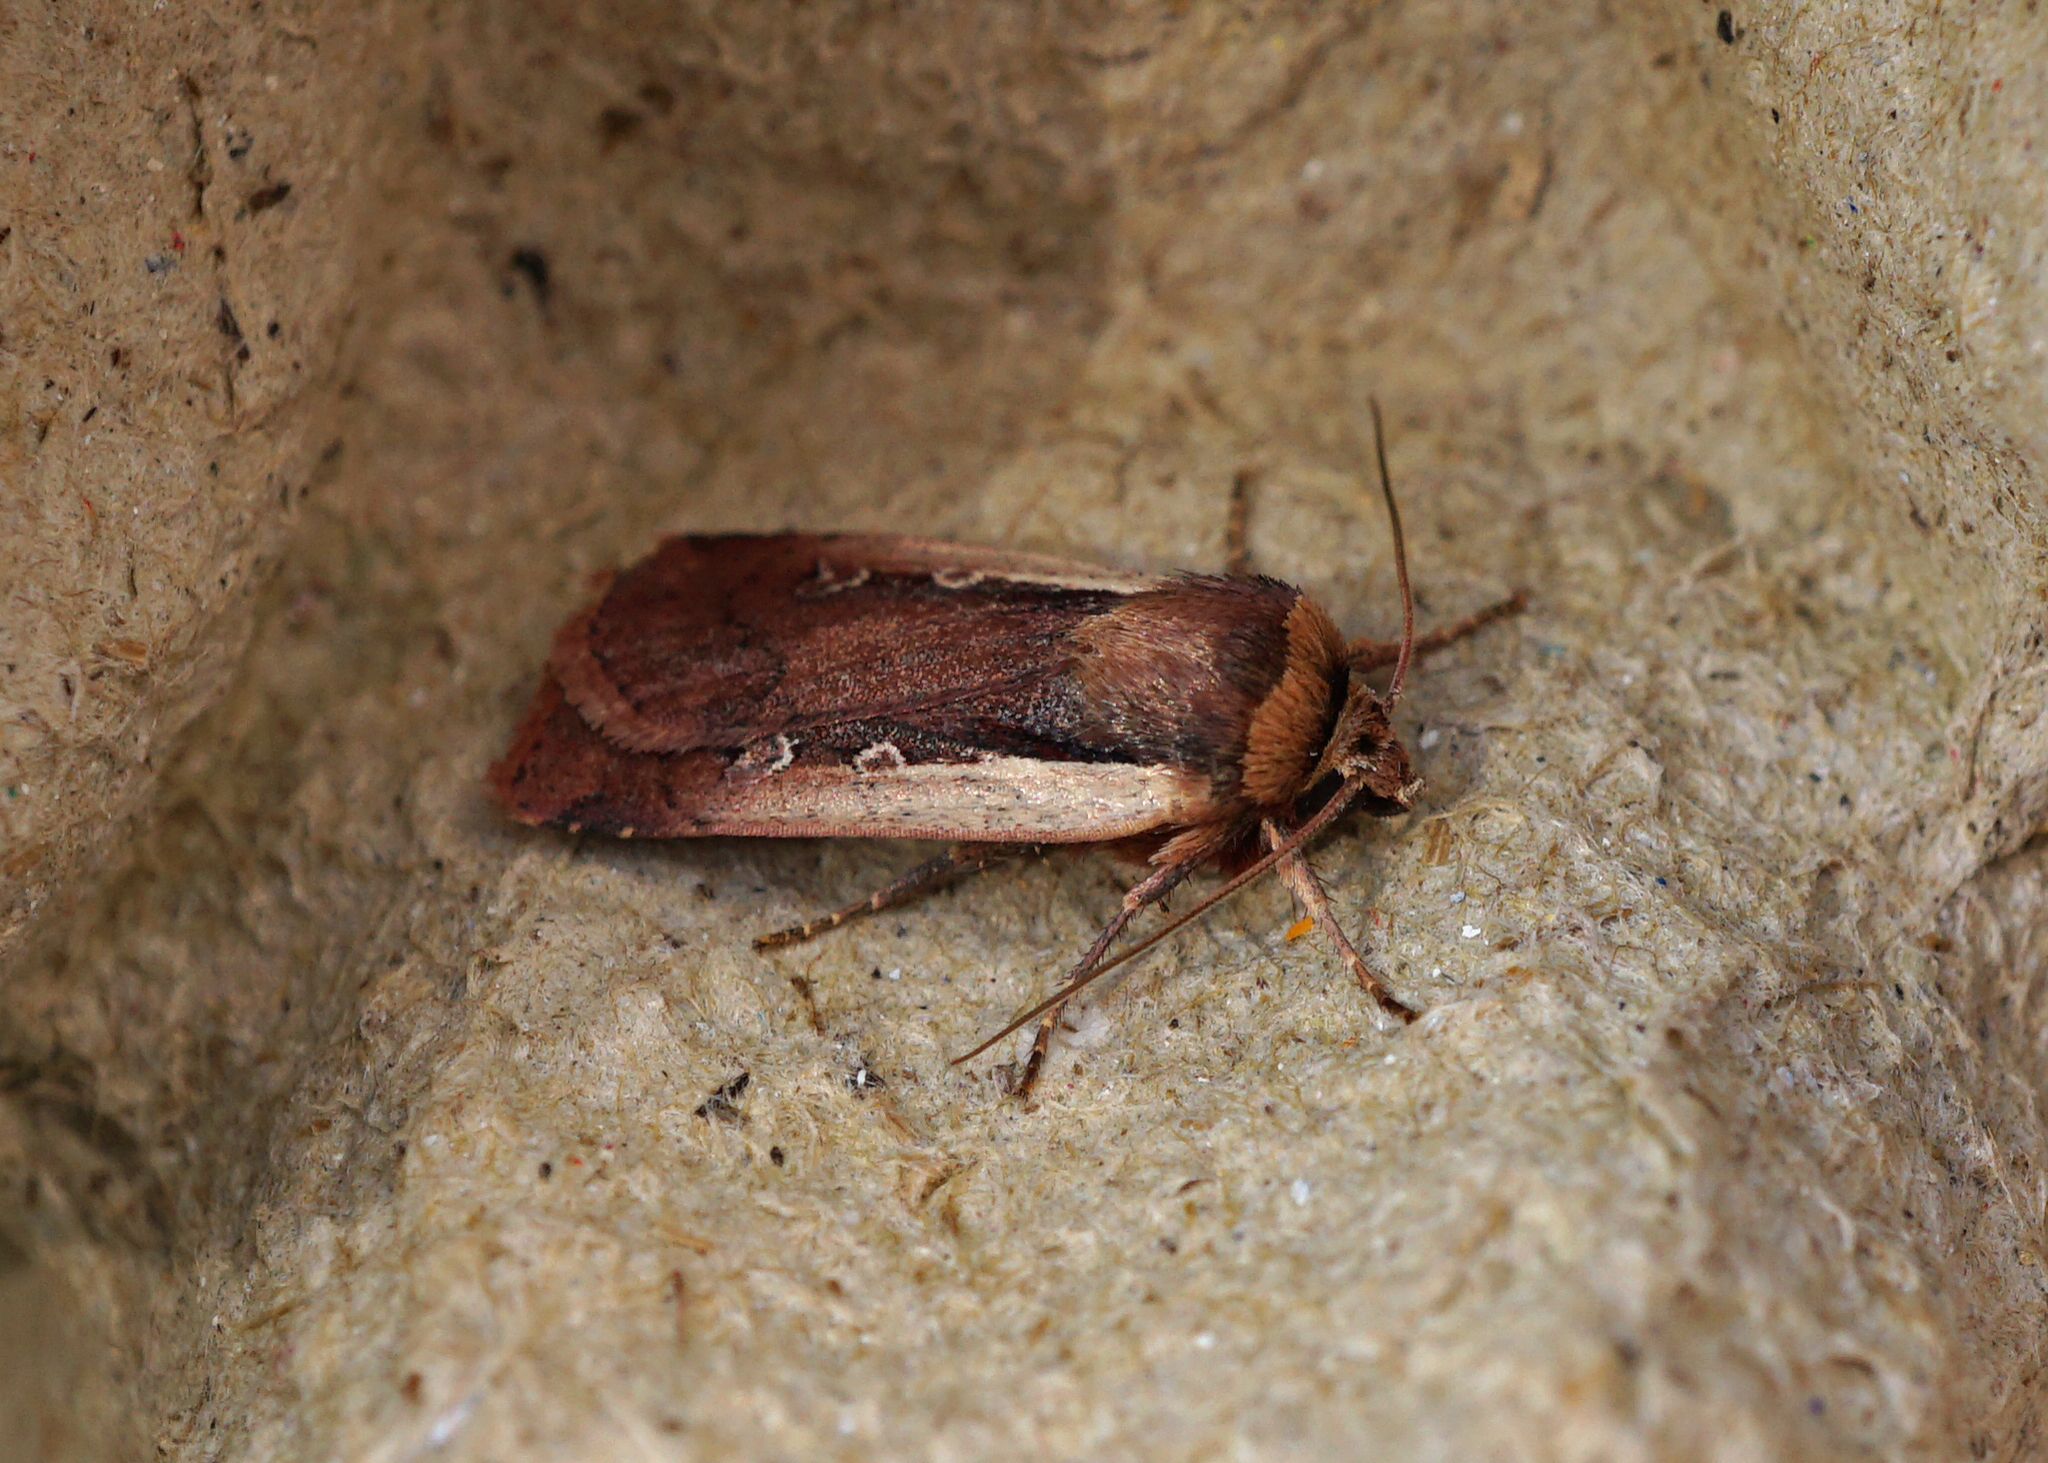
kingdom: Animalia
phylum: Arthropoda
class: Insecta
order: Lepidoptera
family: Noctuidae
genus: Ochropleura
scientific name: Ochropleura plecta
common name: Flame shoulder
